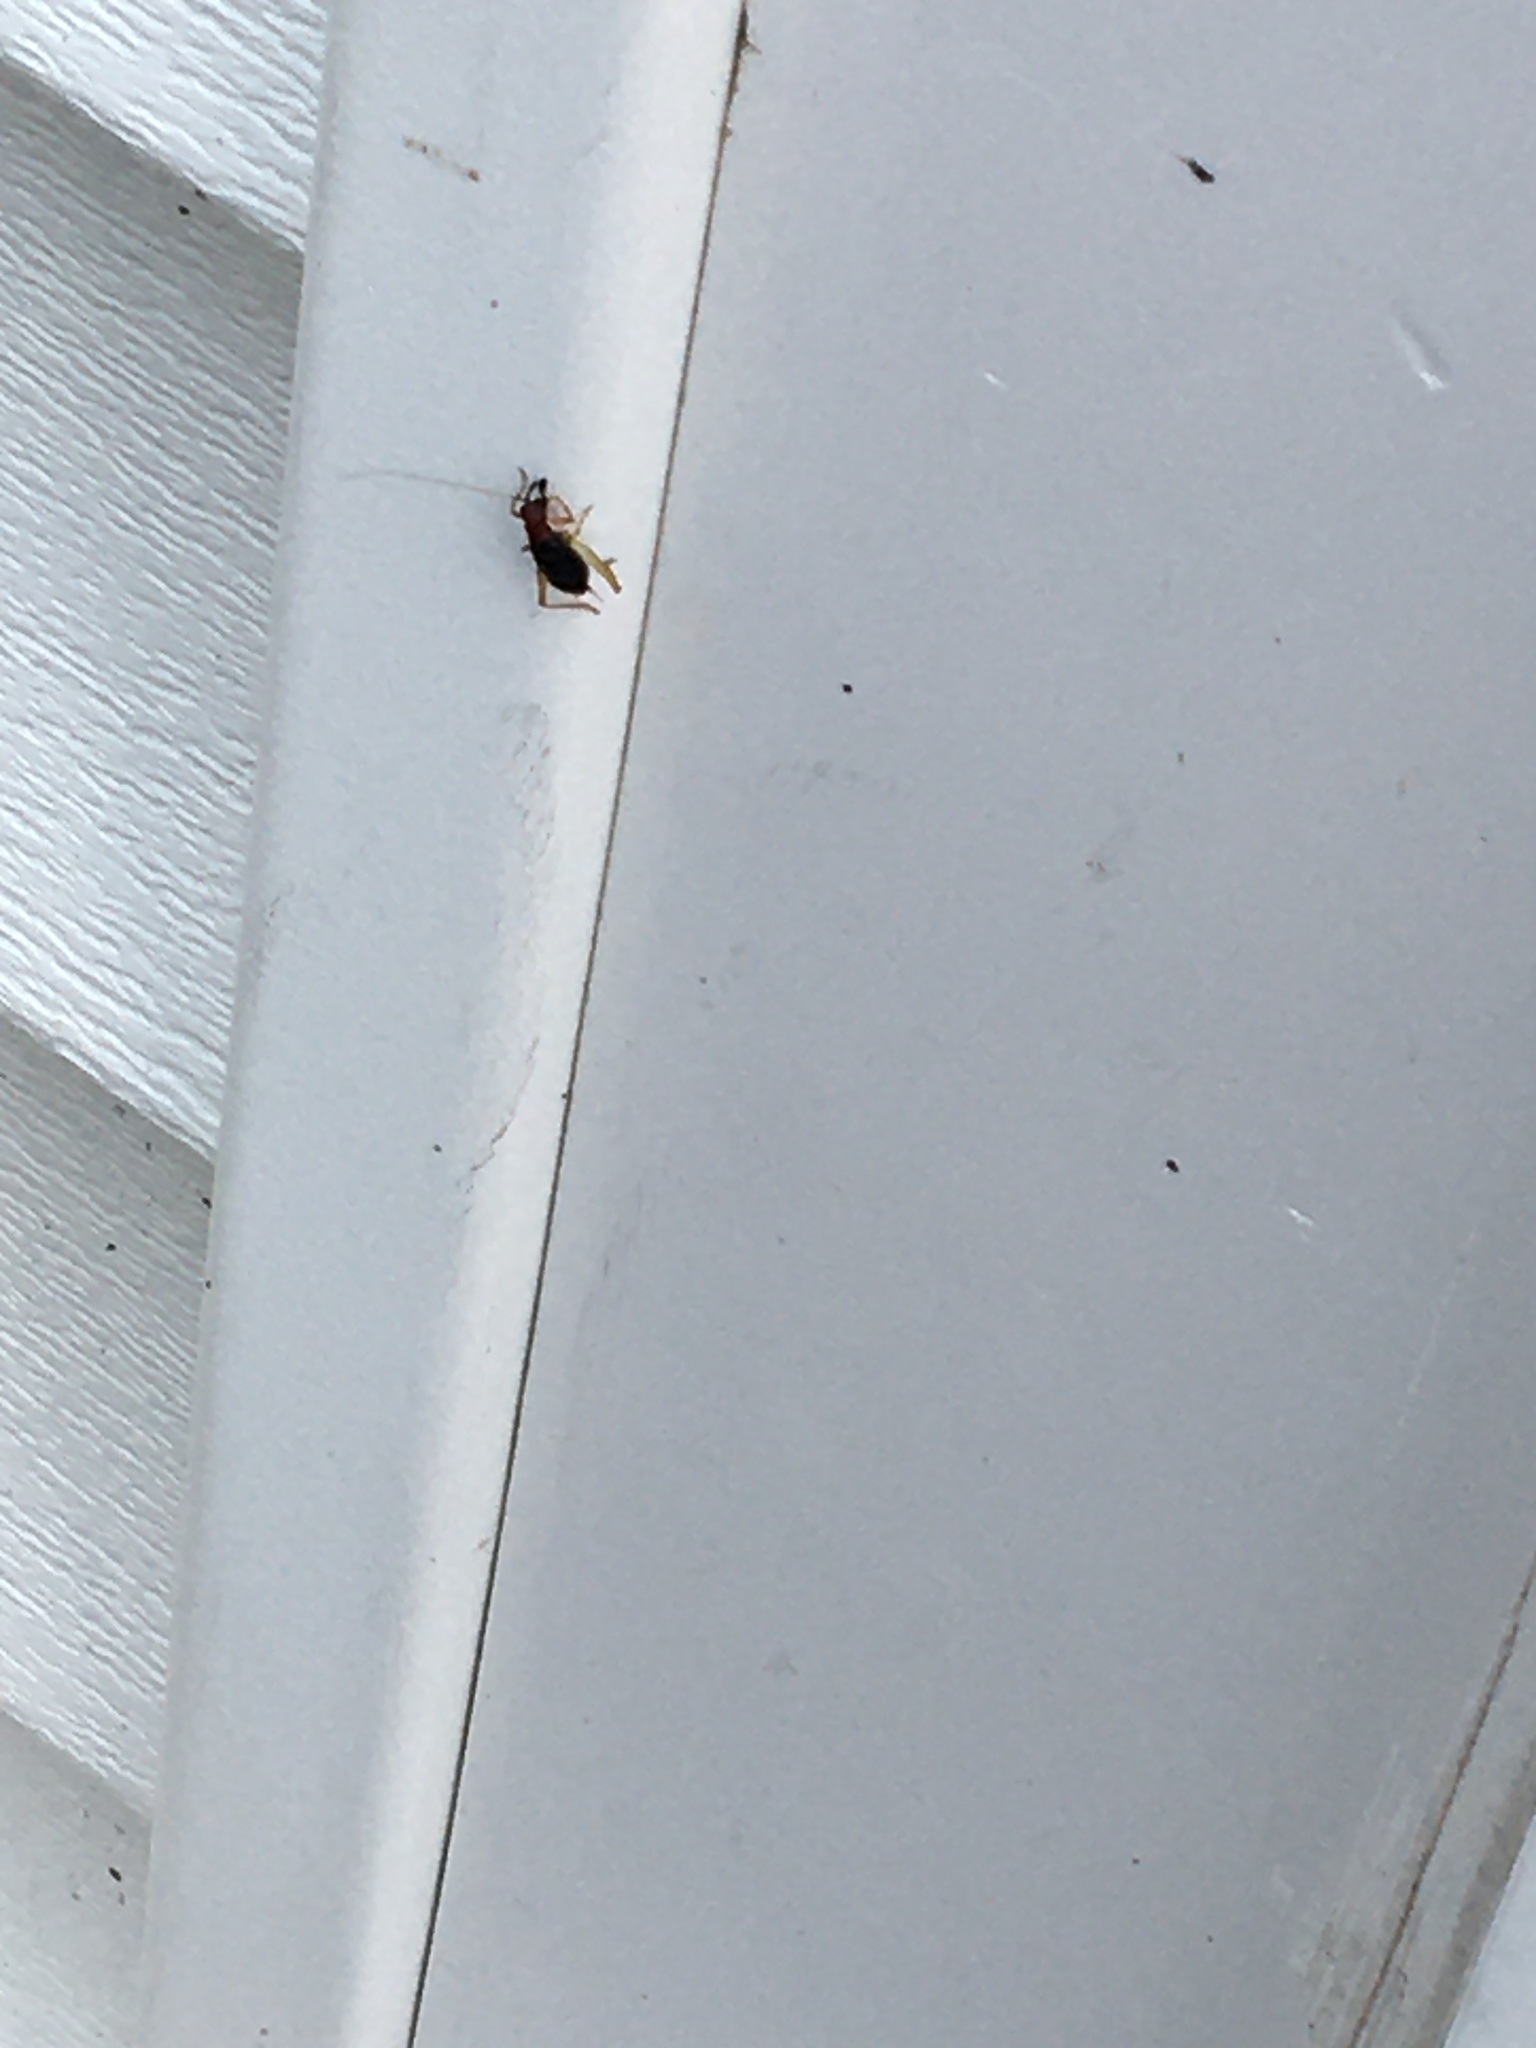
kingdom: Animalia
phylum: Arthropoda
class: Insecta
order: Orthoptera
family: Trigonidiidae
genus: Phyllopalpus
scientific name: Phyllopalpus pulchellus
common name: Handsome trig
